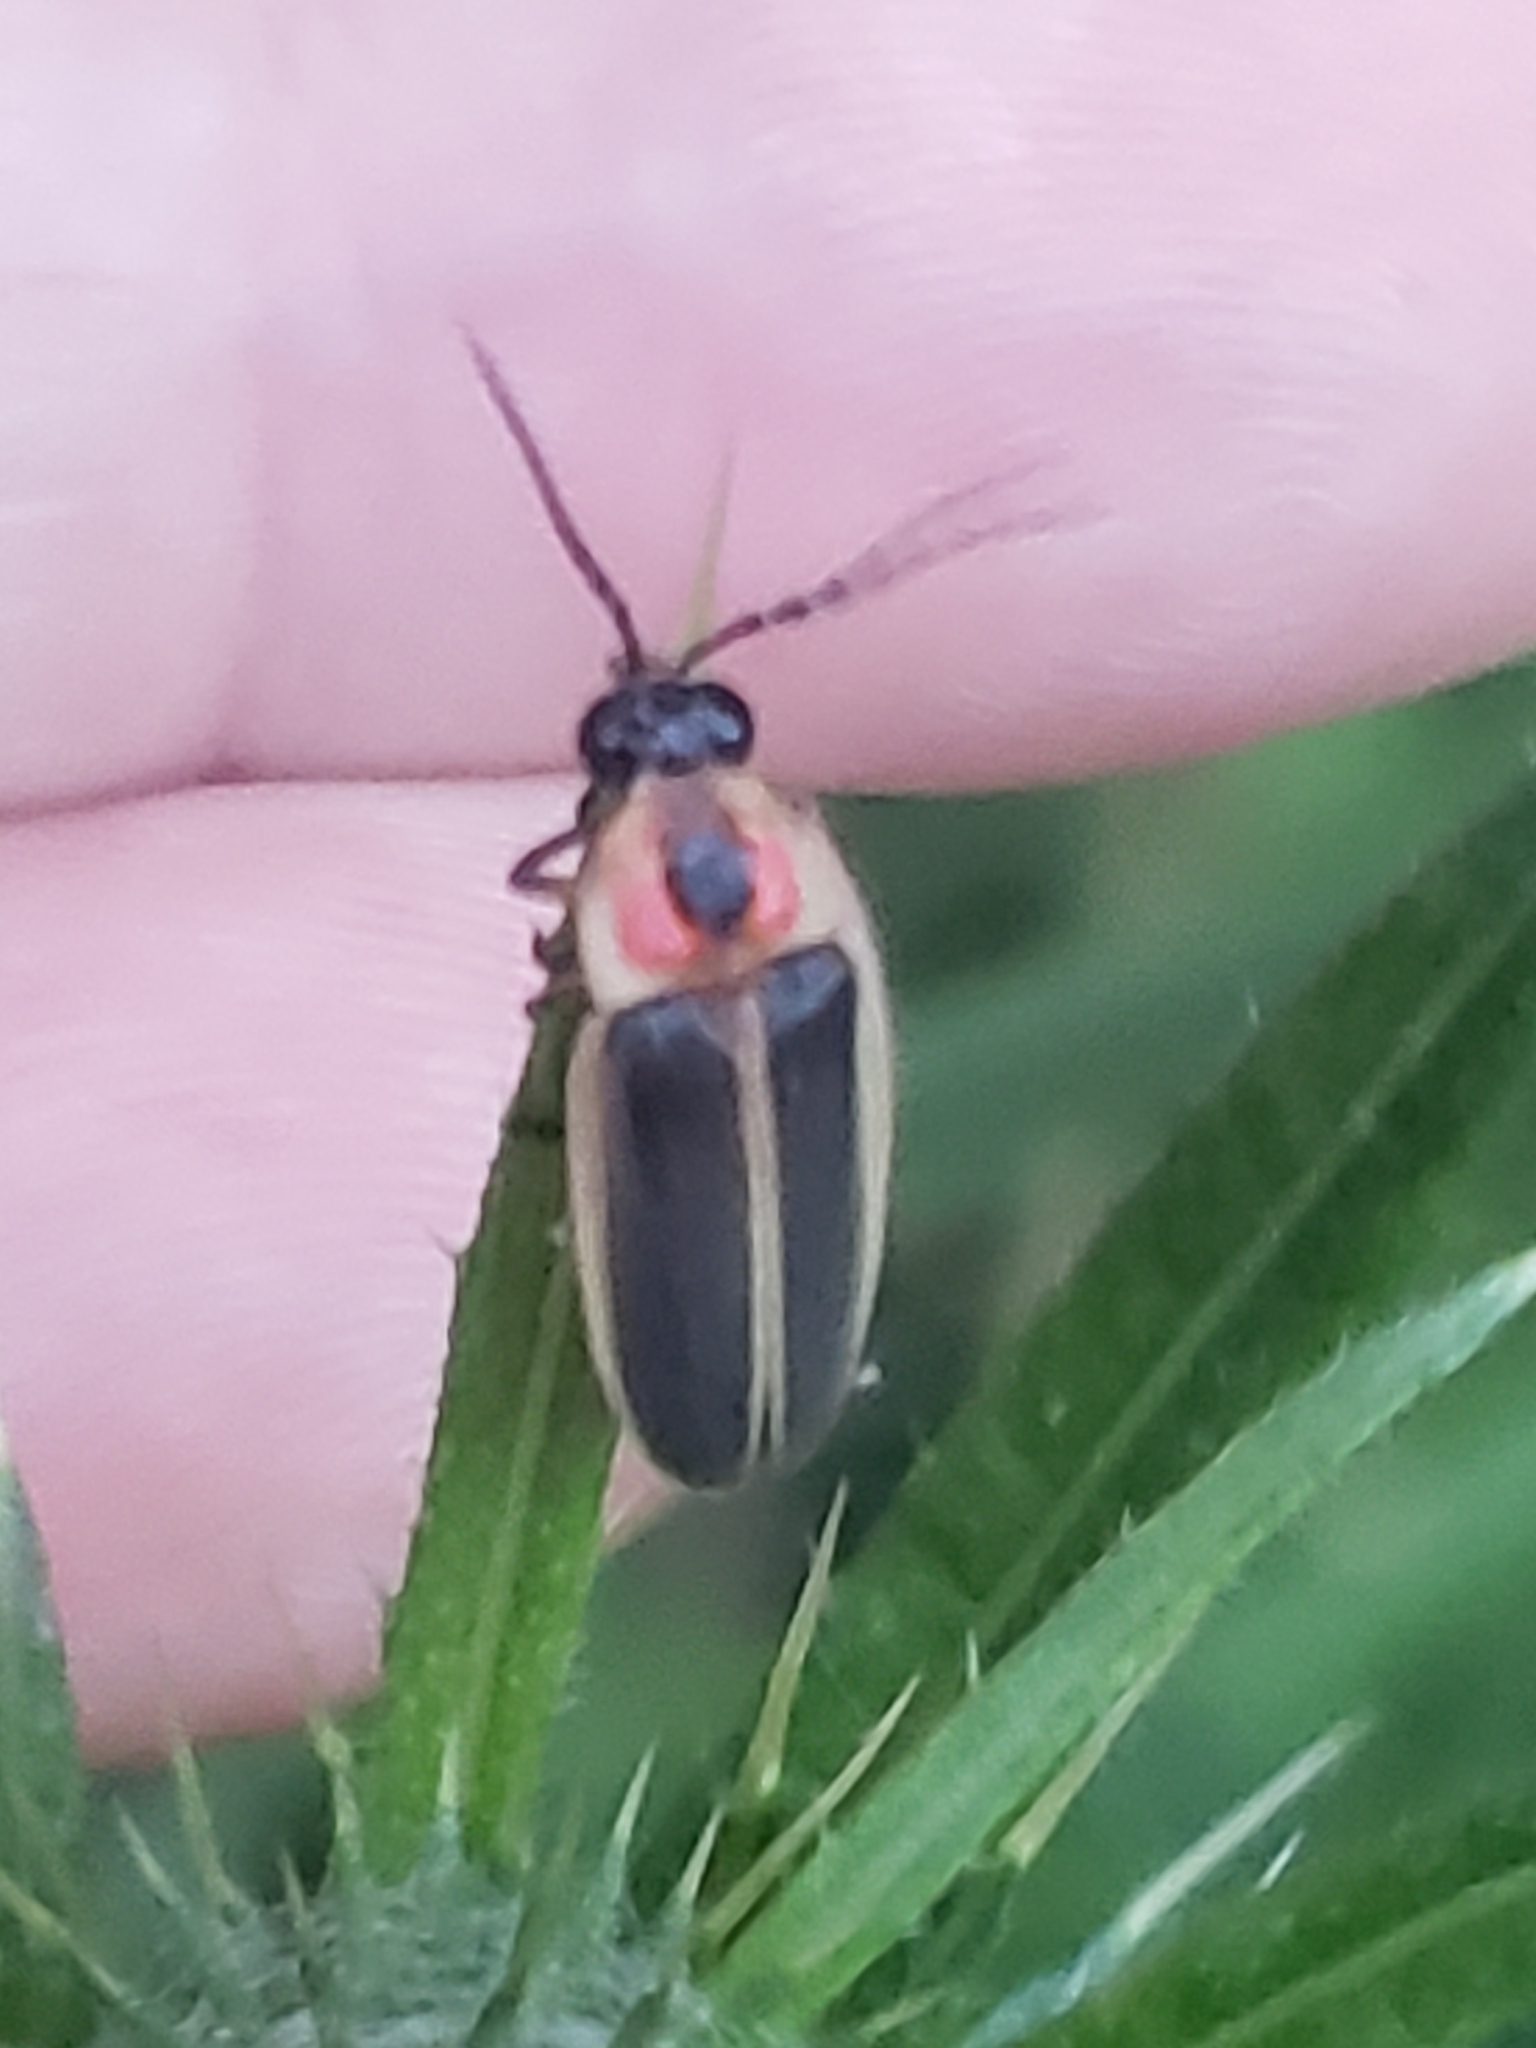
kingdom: Animalia
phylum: Arthropoda
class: Insecta
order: Coleoptera
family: Lampyridae
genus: Photinus
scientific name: Photinus pyralis
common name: Big dipper firefly
